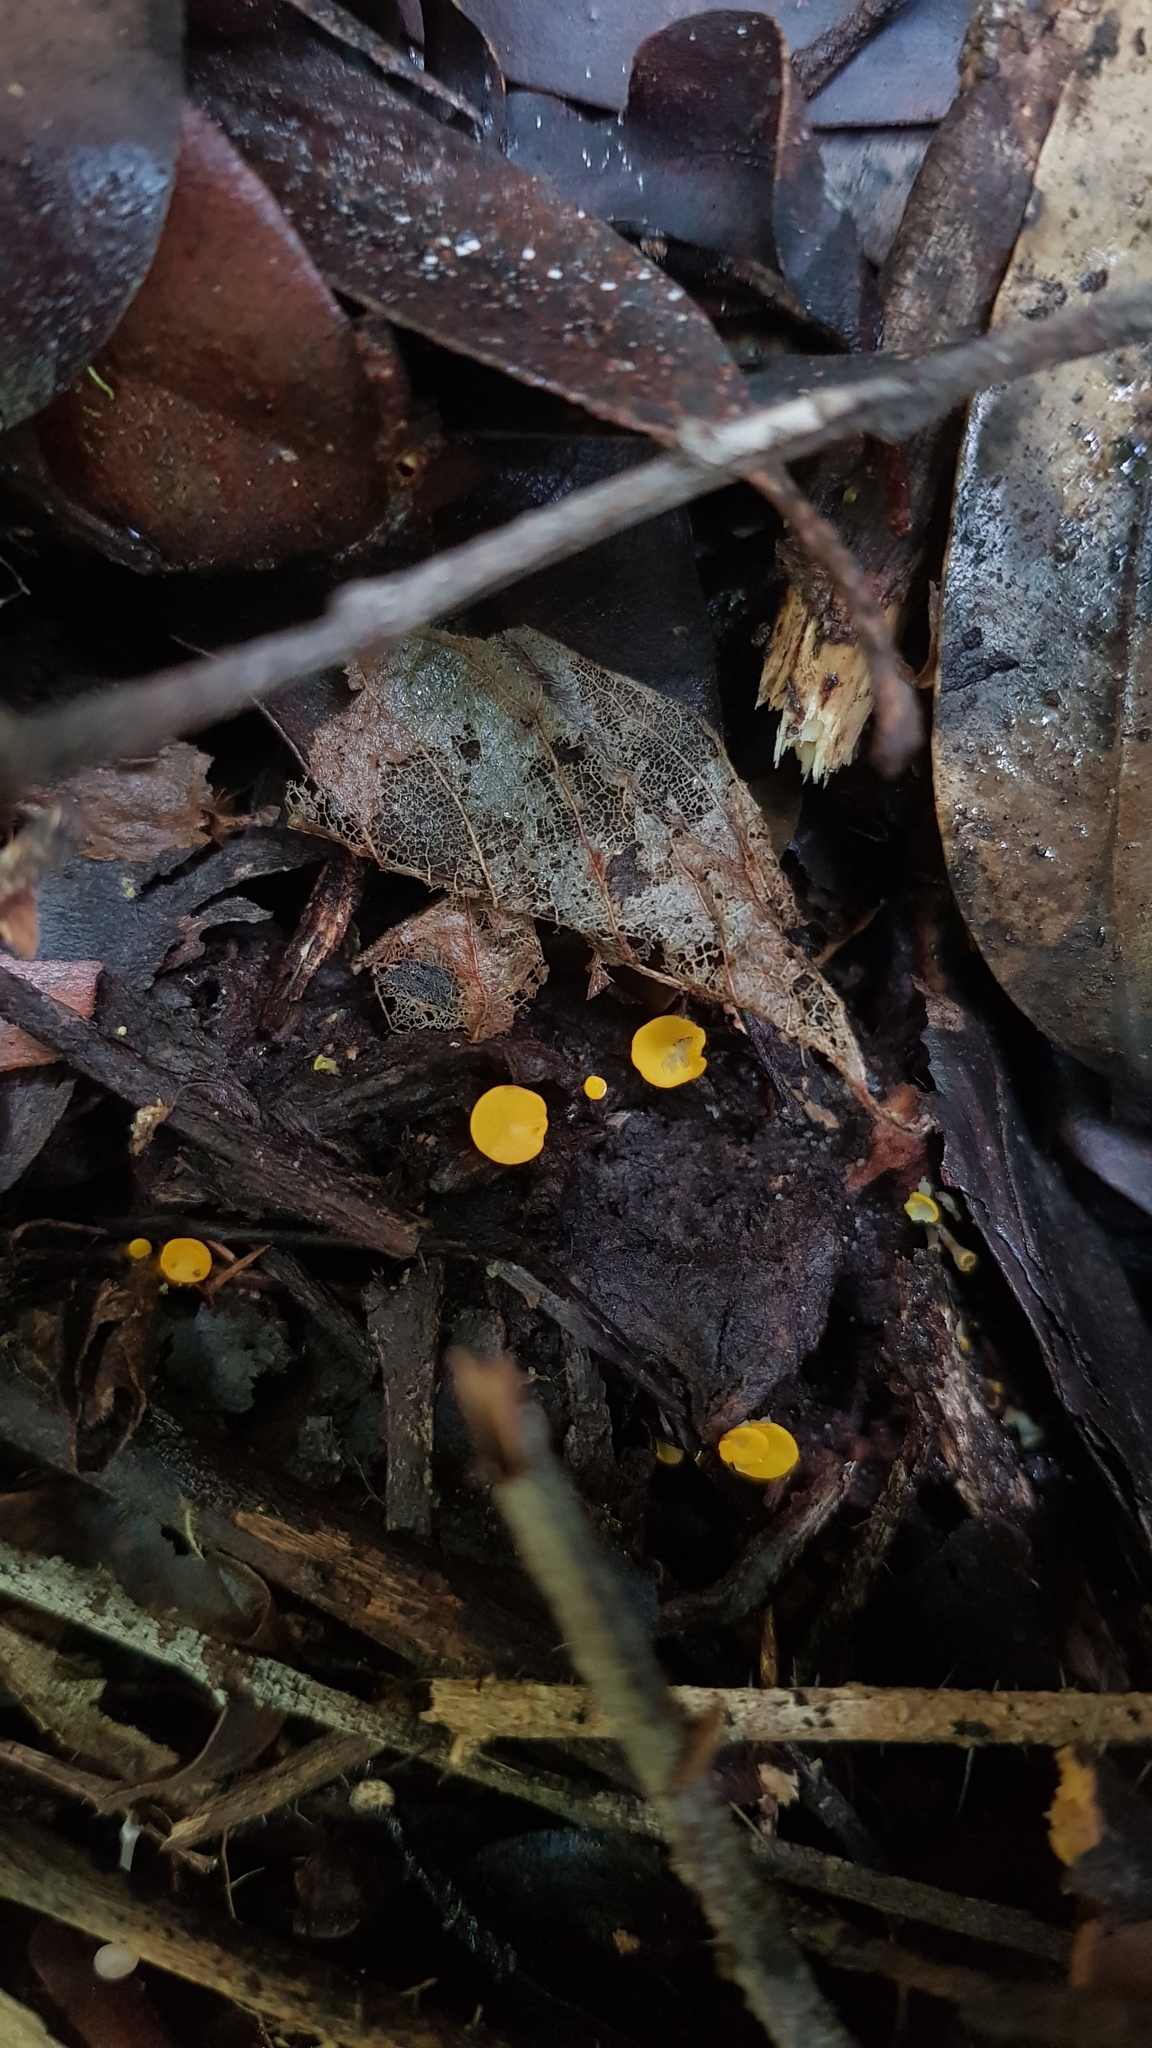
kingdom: Fungi
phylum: Ascomycota
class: Leotiomycetes
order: Helotiales
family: Helotiaceae
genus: Phaeohelotium
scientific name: Phaeohelotium baileyanum
